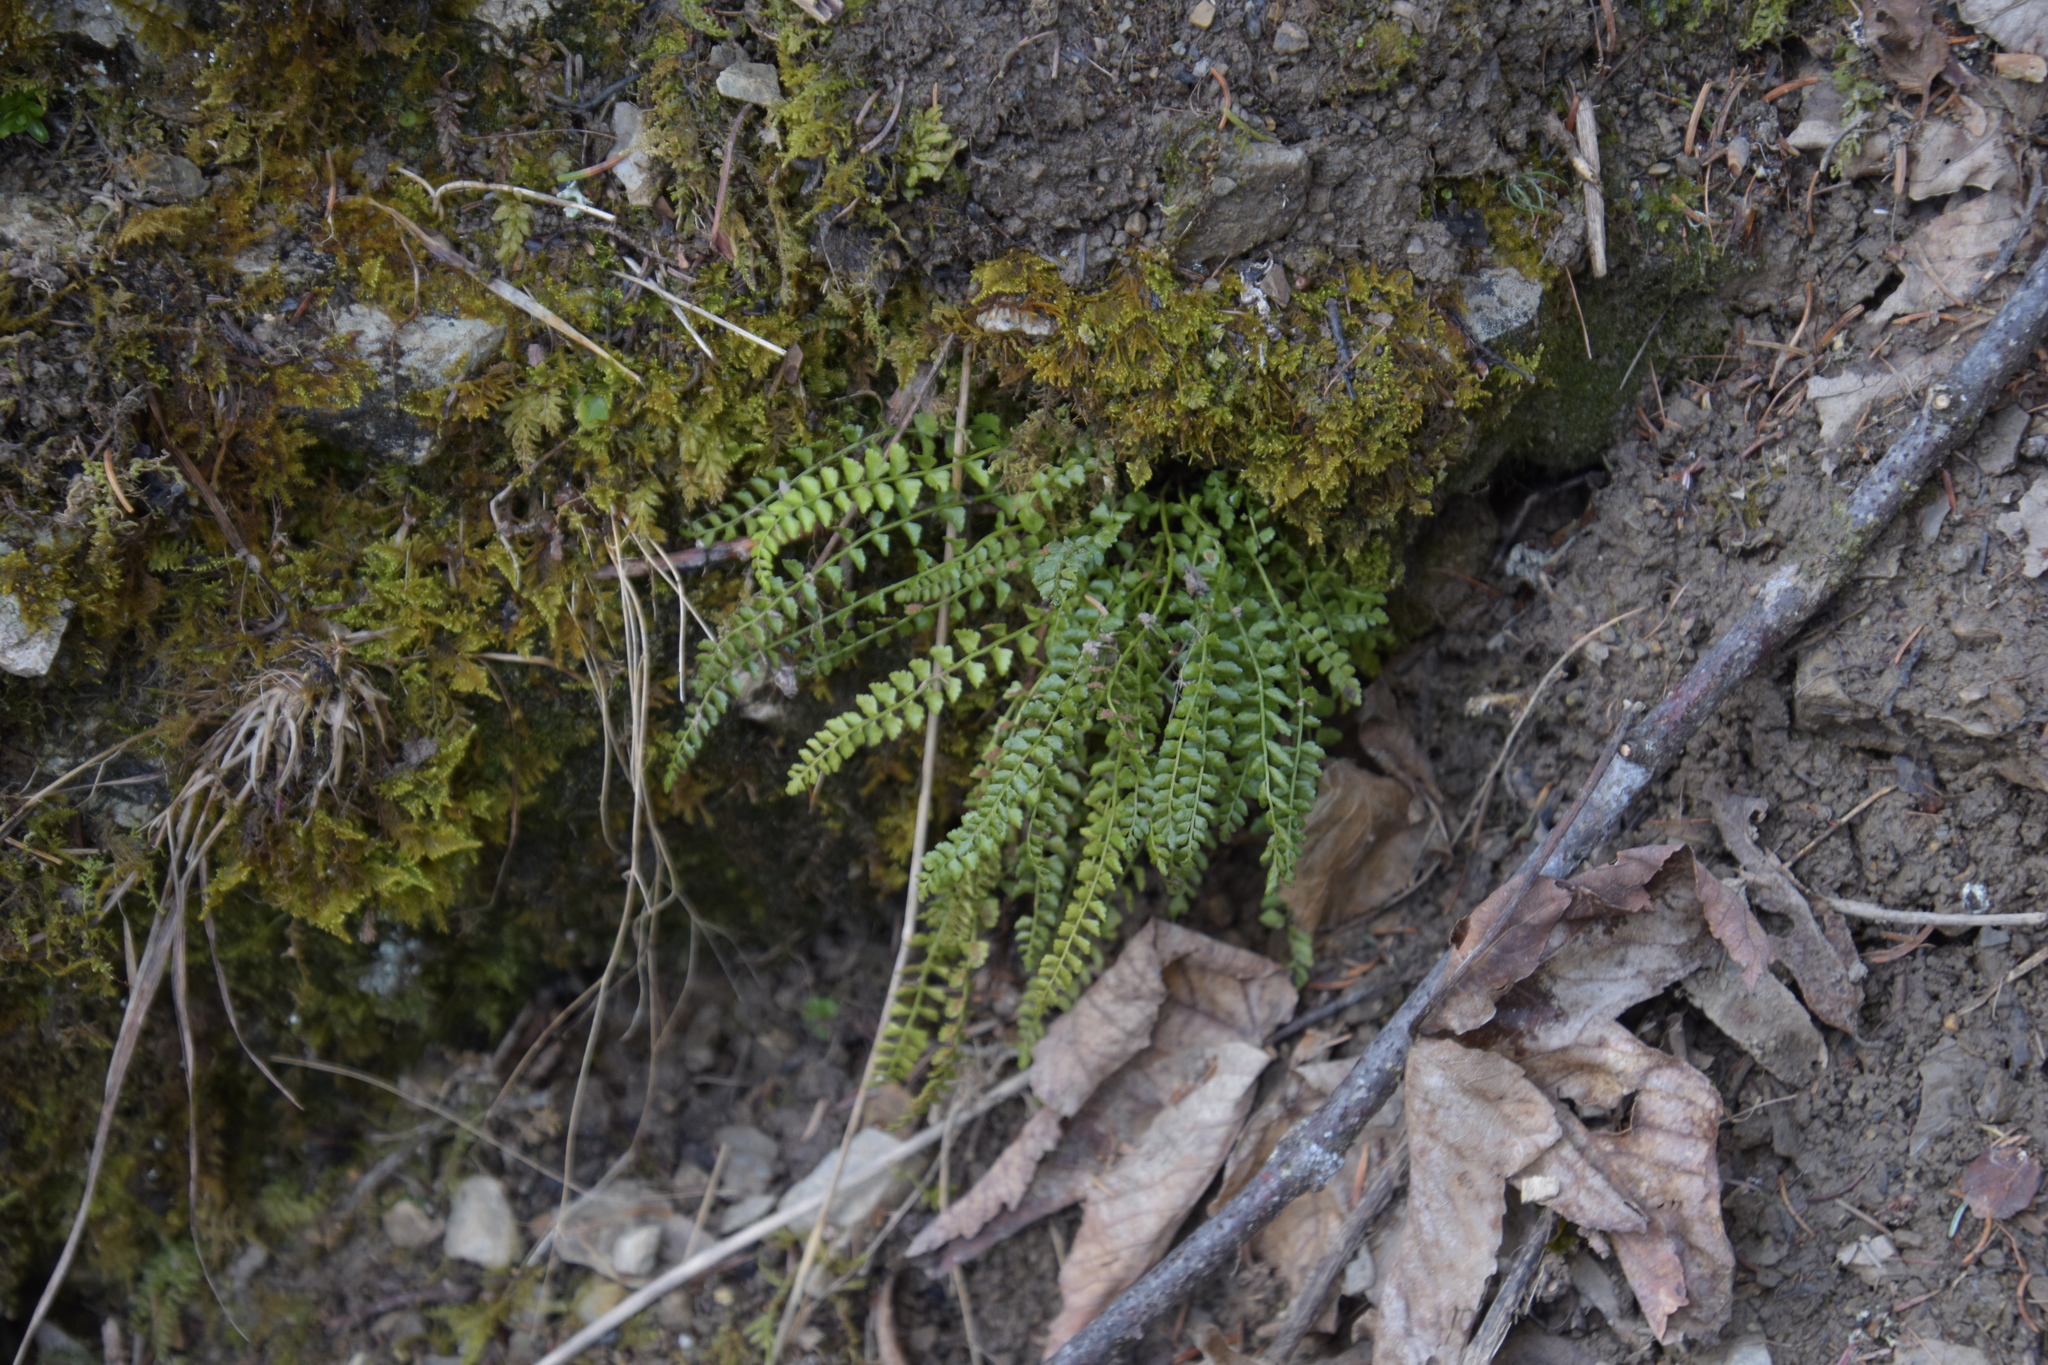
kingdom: Plantae
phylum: Tracheophyta
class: Polypodiopsida
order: Polypodiales
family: Aspleniaceae
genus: Asplenium
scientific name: Asplenium viride
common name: Green spleenwort
